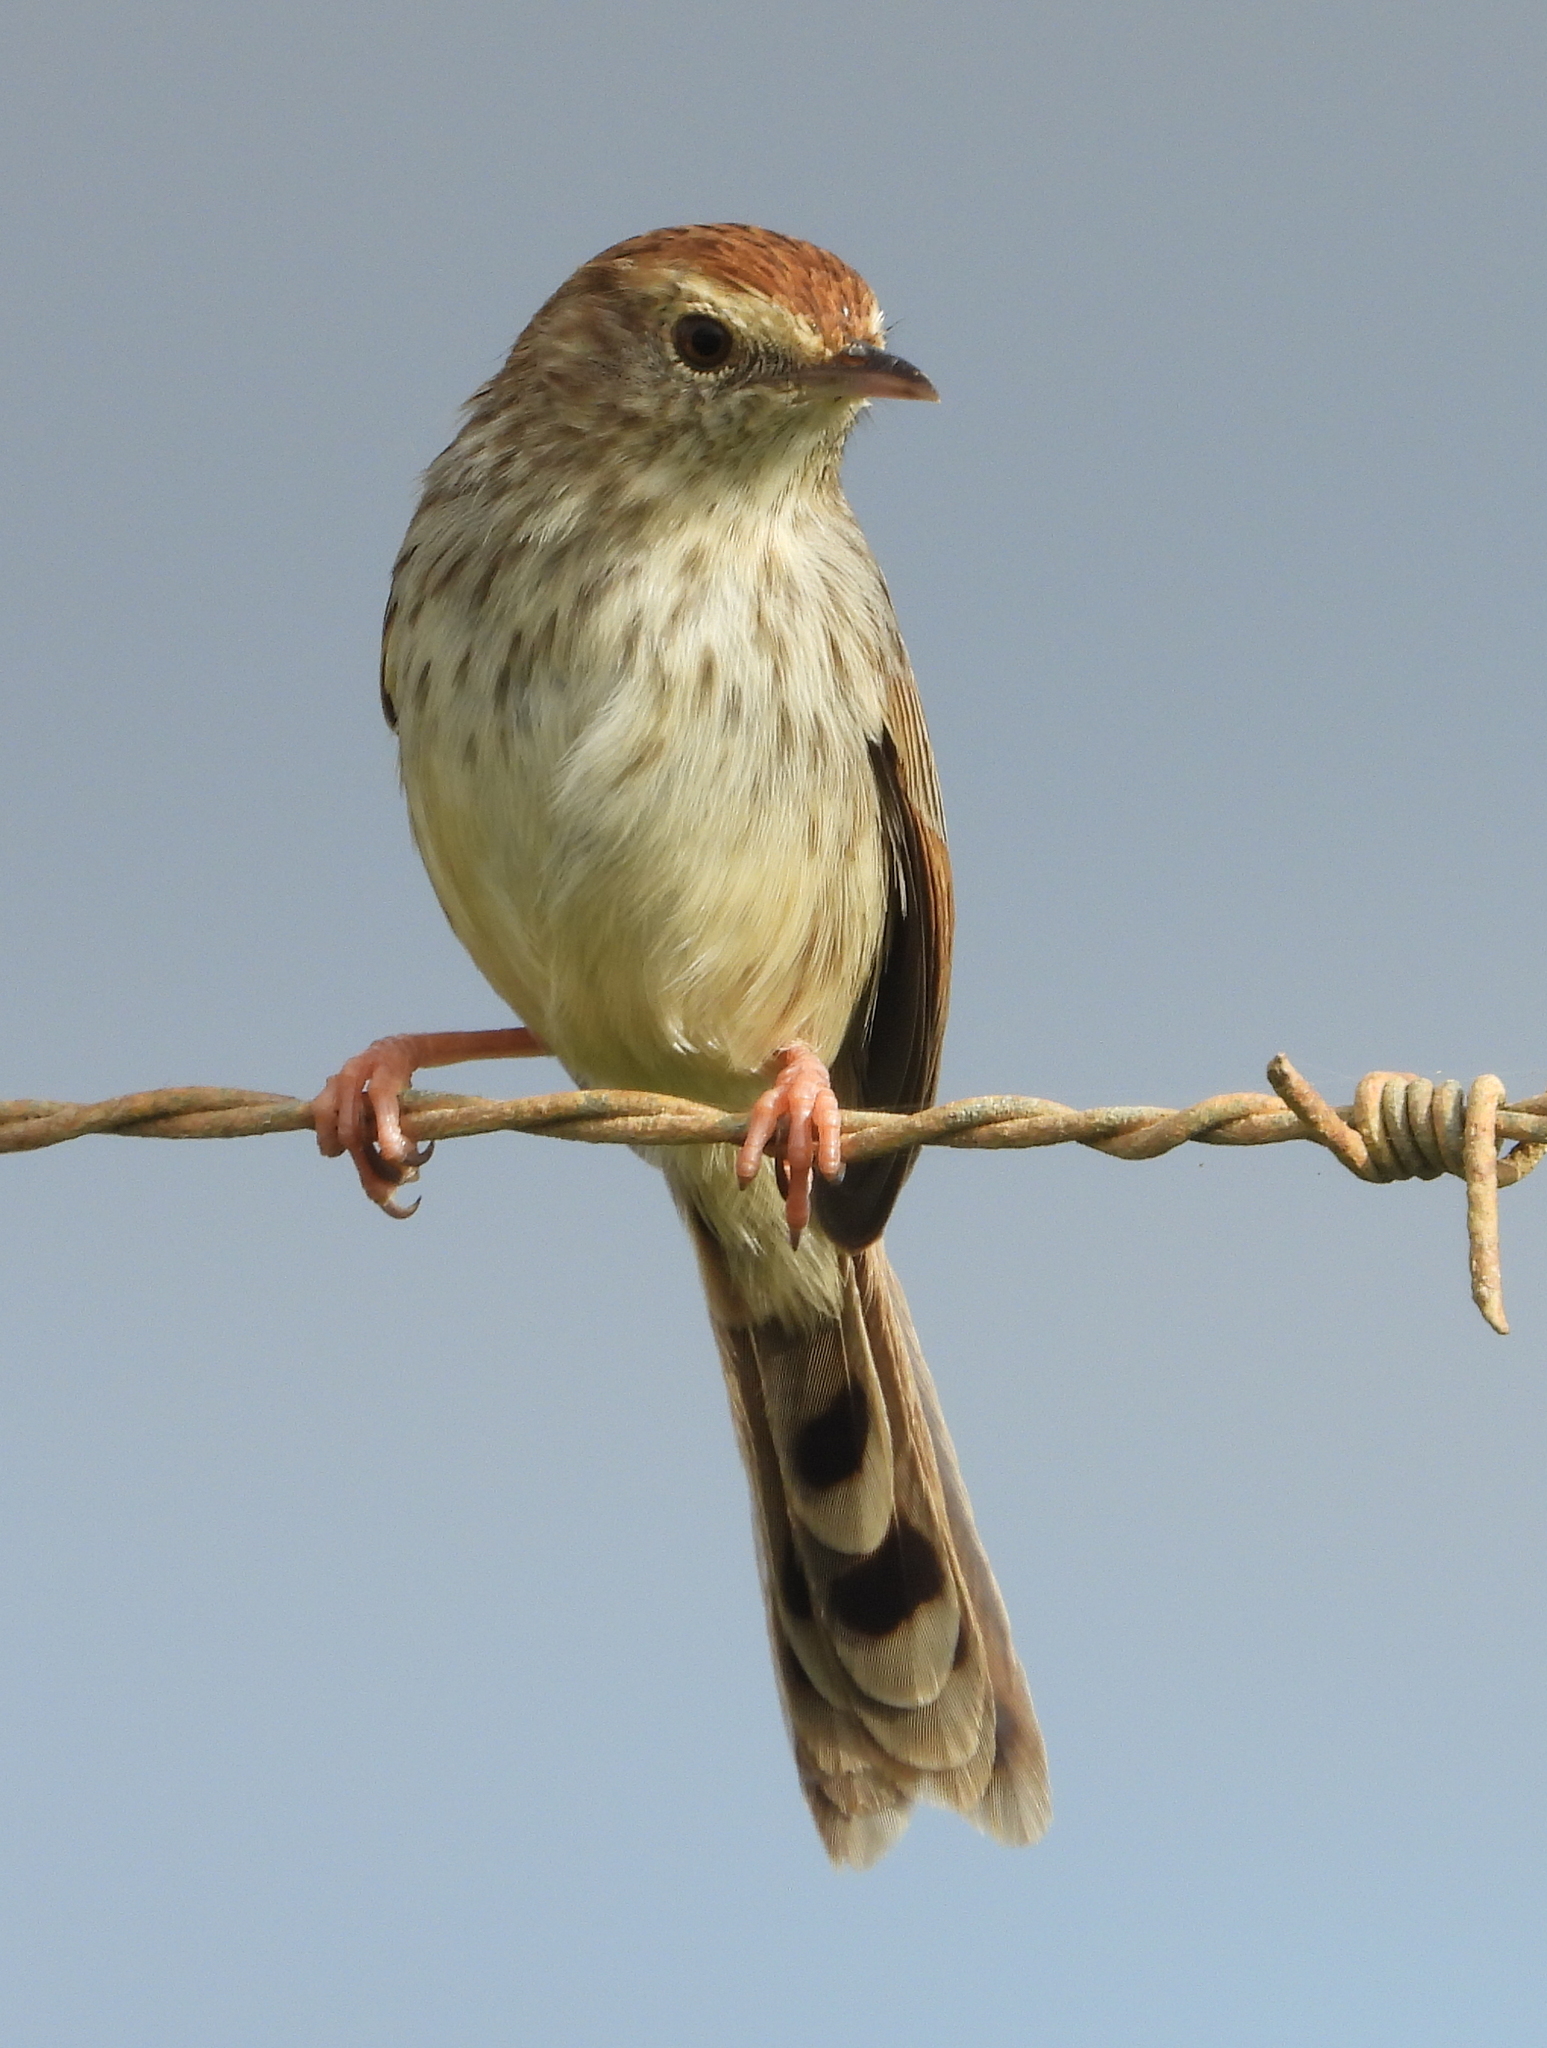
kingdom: Animalia
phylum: Chordata
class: Aves
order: Passeriformes
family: Cisticolidae
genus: Cisticola
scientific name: Cisticola subruficapilla
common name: Grey-backed cisticola
